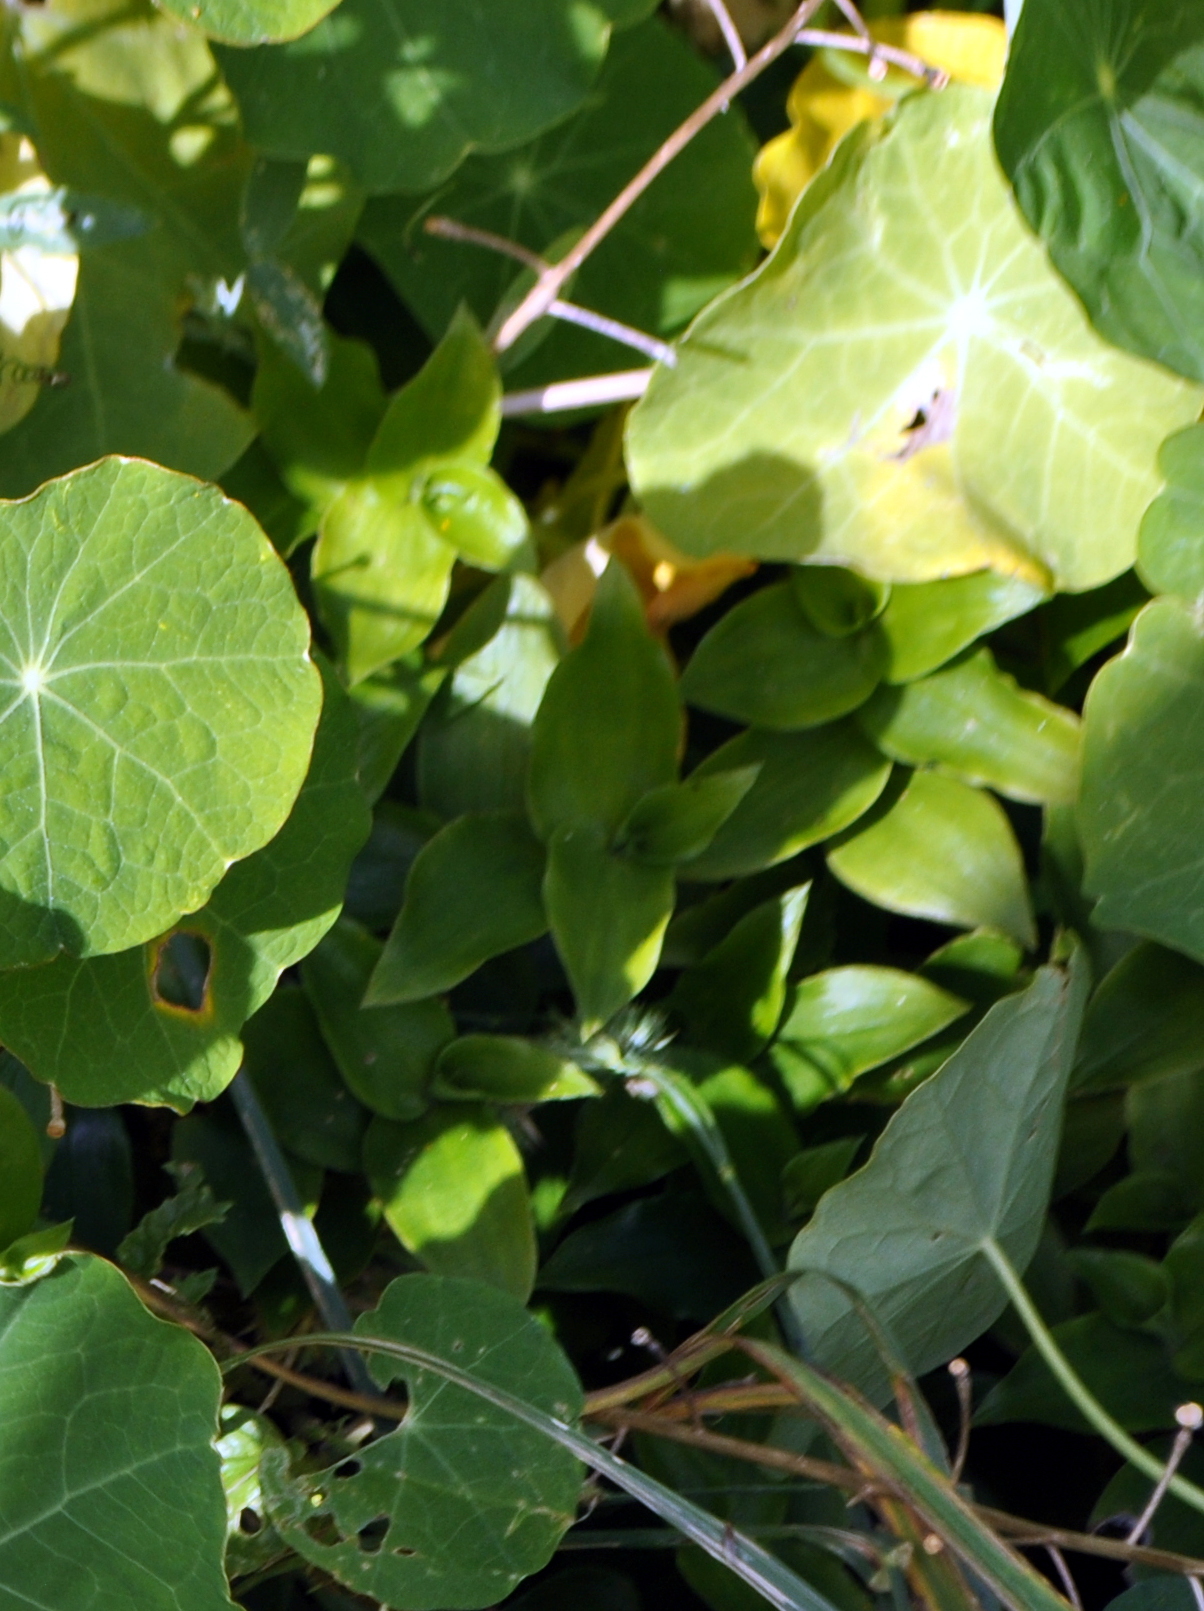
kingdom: Plantae
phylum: Tracheophyta
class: Liliopsida
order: Commelinales
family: Commelinaceae
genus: Tradescantia
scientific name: Tradescantia fluminensis
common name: Wandering-jew
